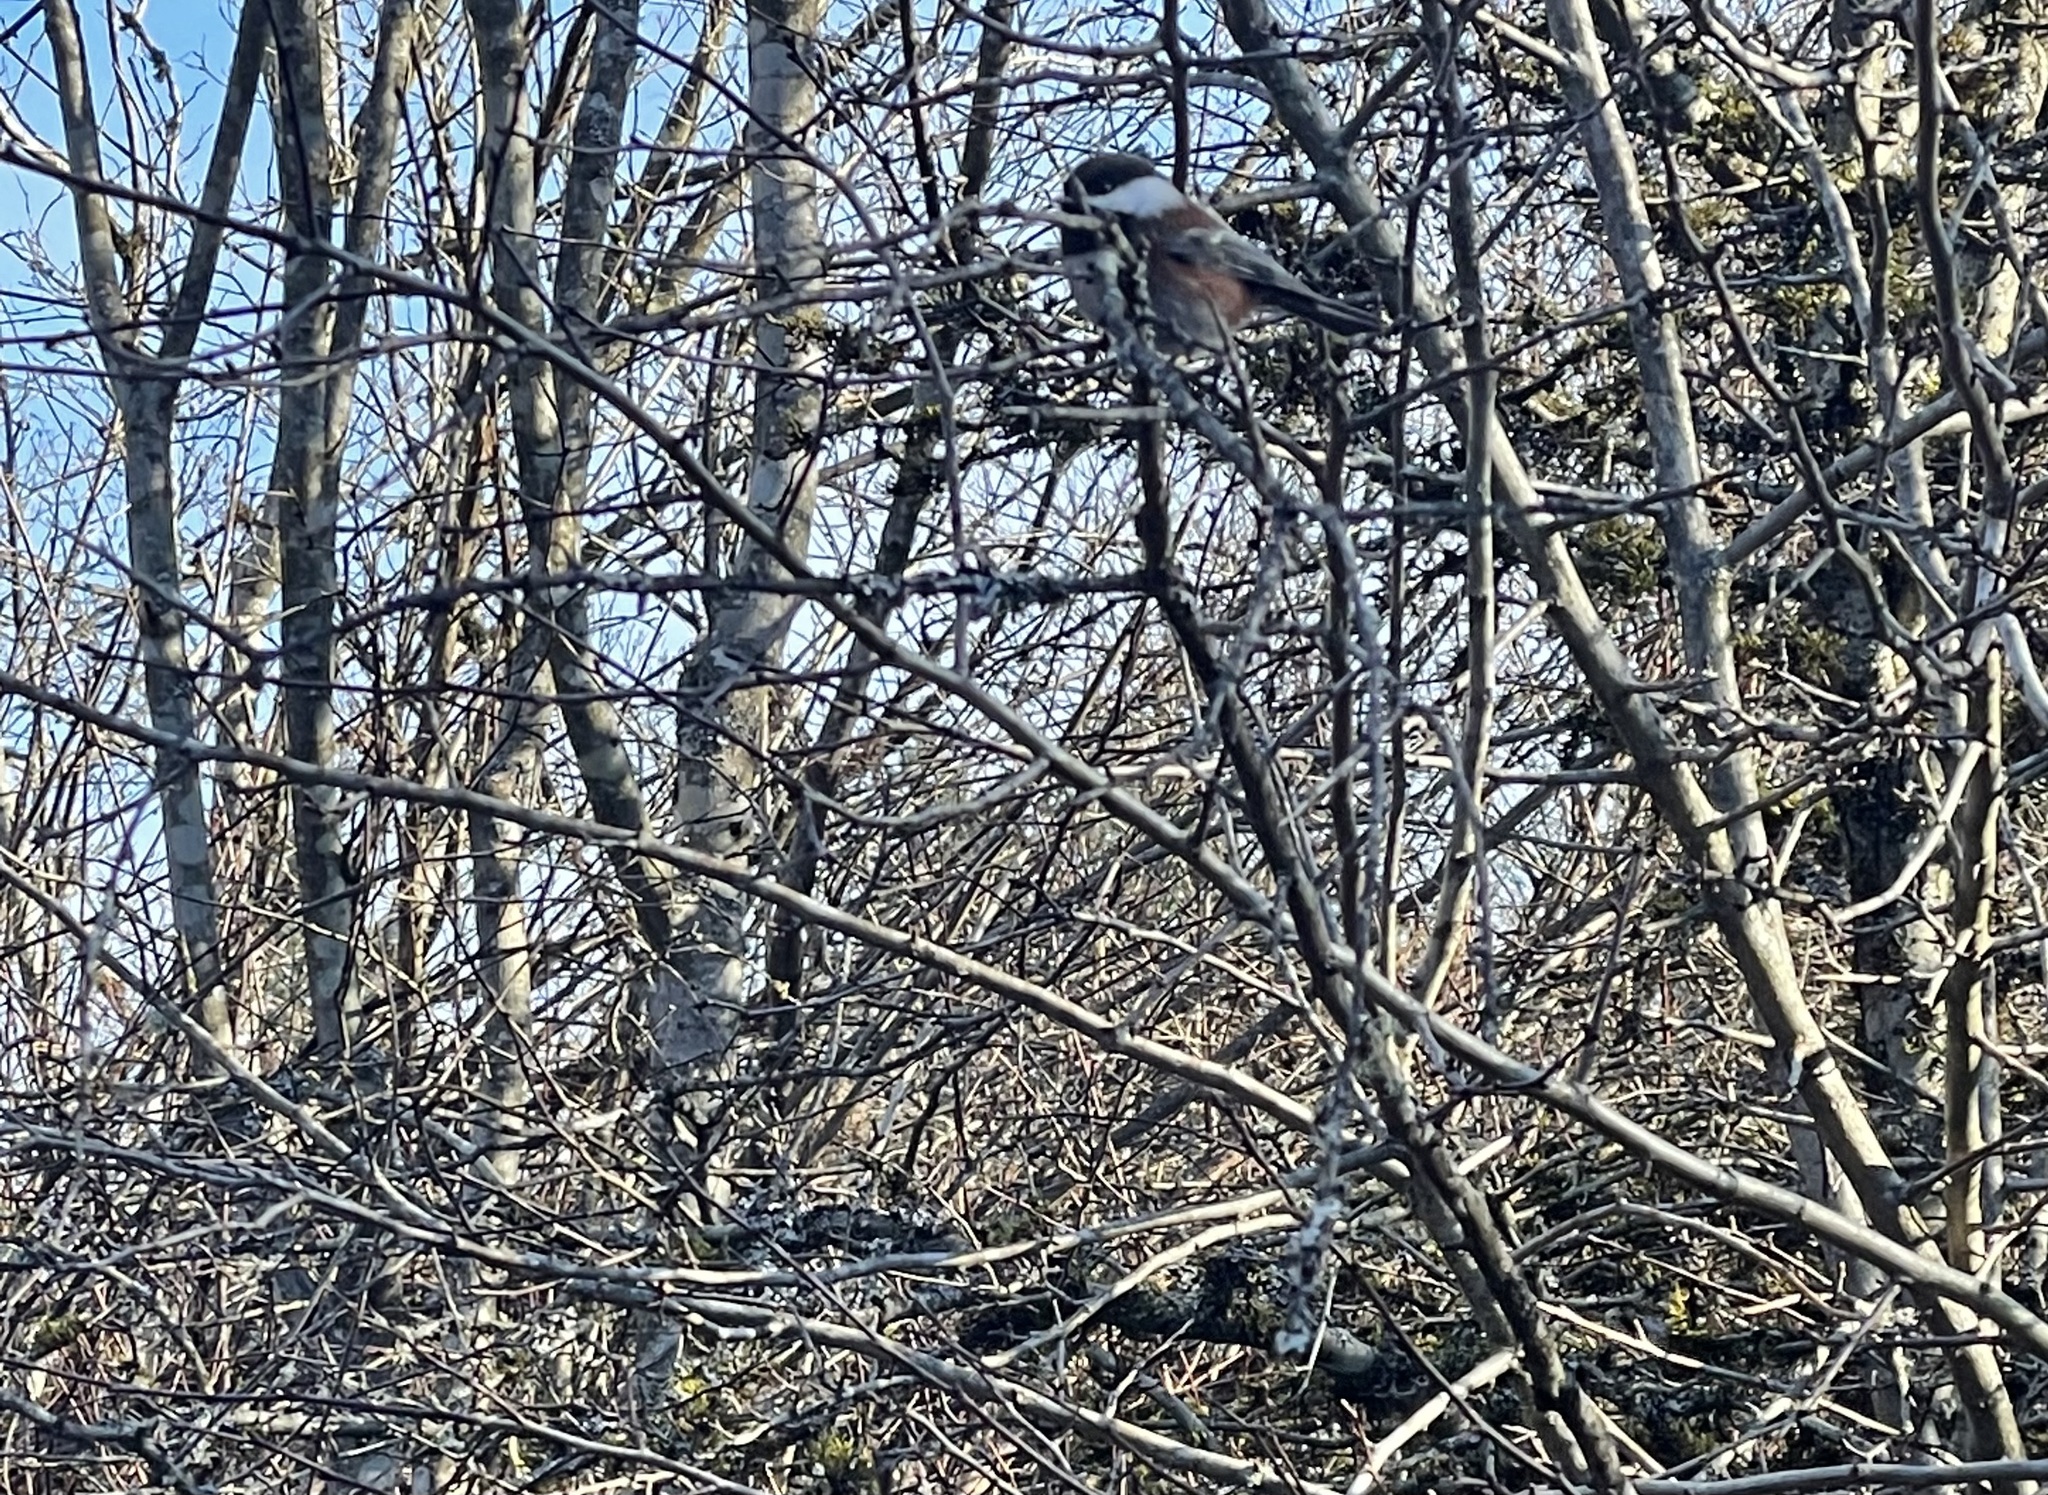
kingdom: Animalia
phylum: Chordata
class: Aves
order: Passeriformes
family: Paridae
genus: Poecile
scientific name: Poecile rufescens
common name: Chestnut-backed chickadee
